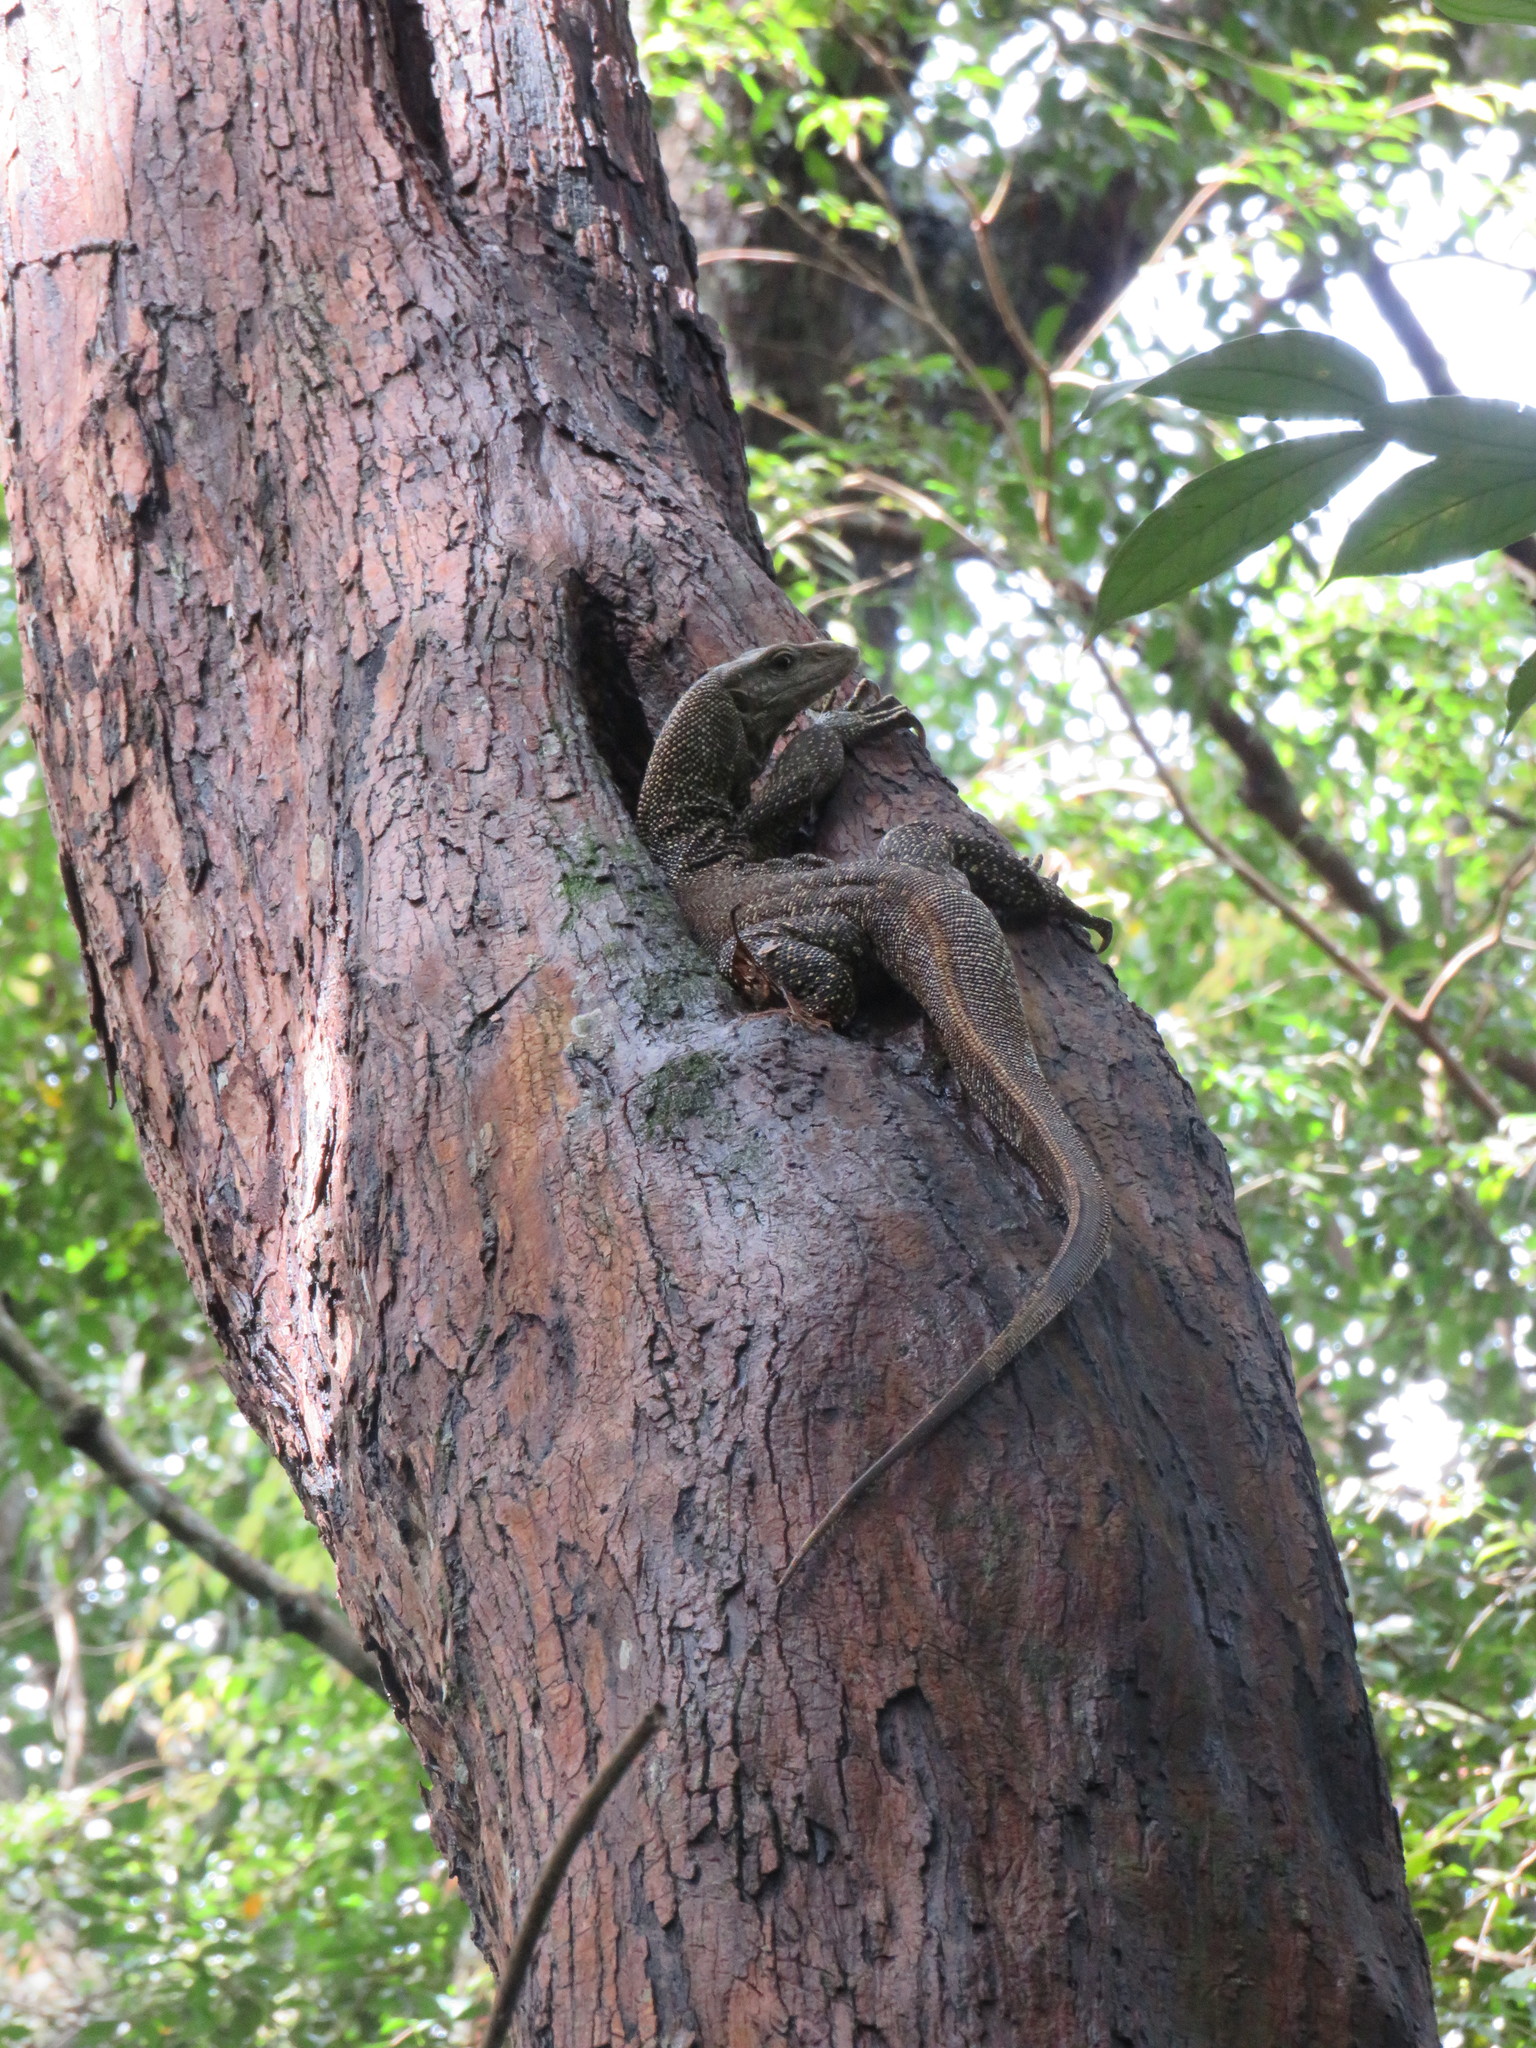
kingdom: Animalia
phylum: Chordata
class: Squamata
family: Varanidae
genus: Varanus
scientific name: Varanus nebulosus
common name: Clouded monitor
